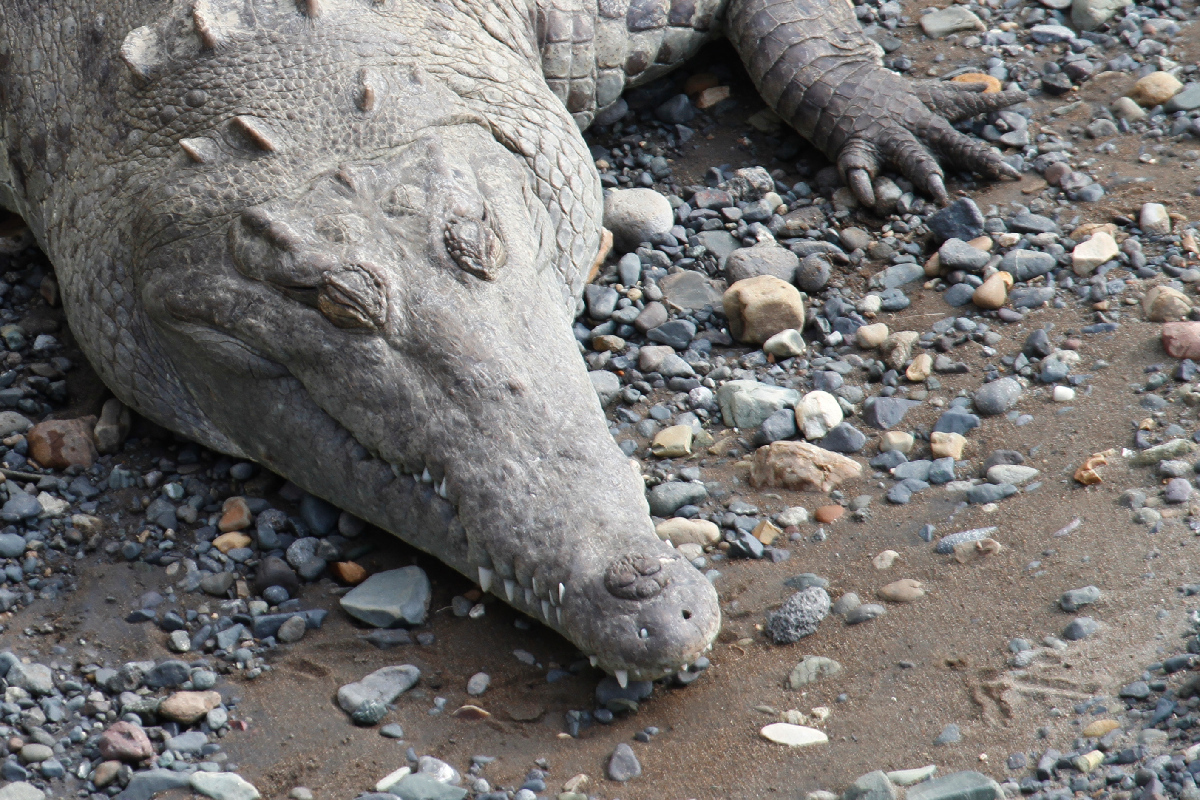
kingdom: Animalia
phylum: Chordata
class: Crocodylia
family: Crocodylidae
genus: Crocodylus
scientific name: Crocodylus acutus
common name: American crocodile
